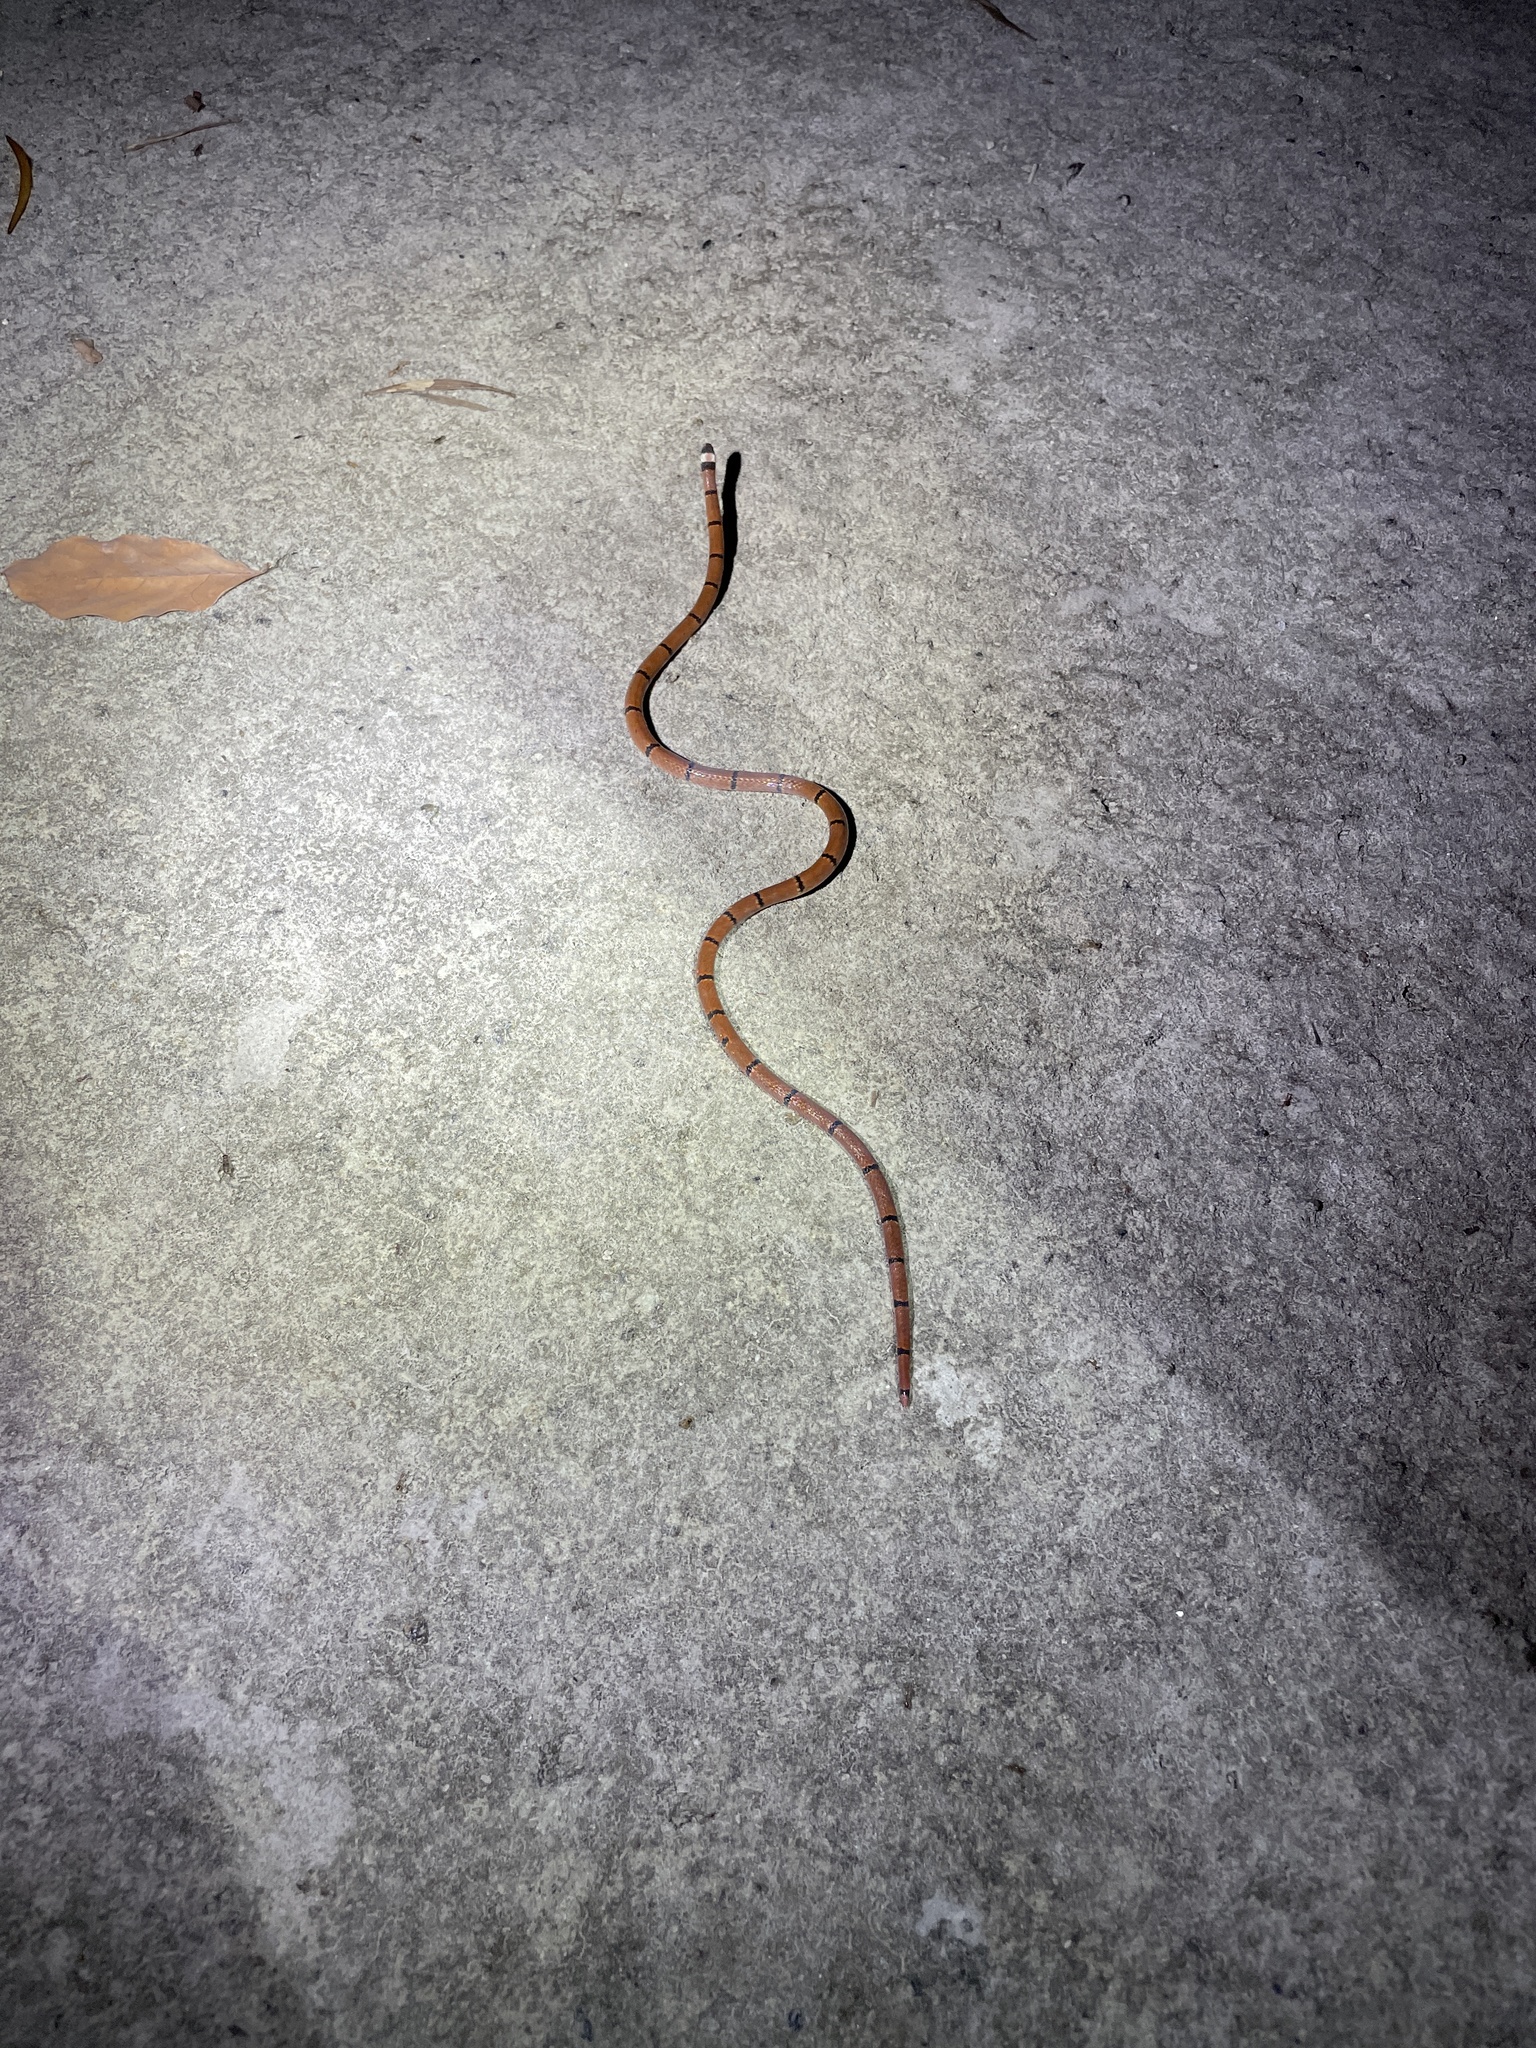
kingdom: Animalia
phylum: Chordata
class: Squamata
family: Elapidae
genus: Sinomicrurus
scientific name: Sinomicrurus
